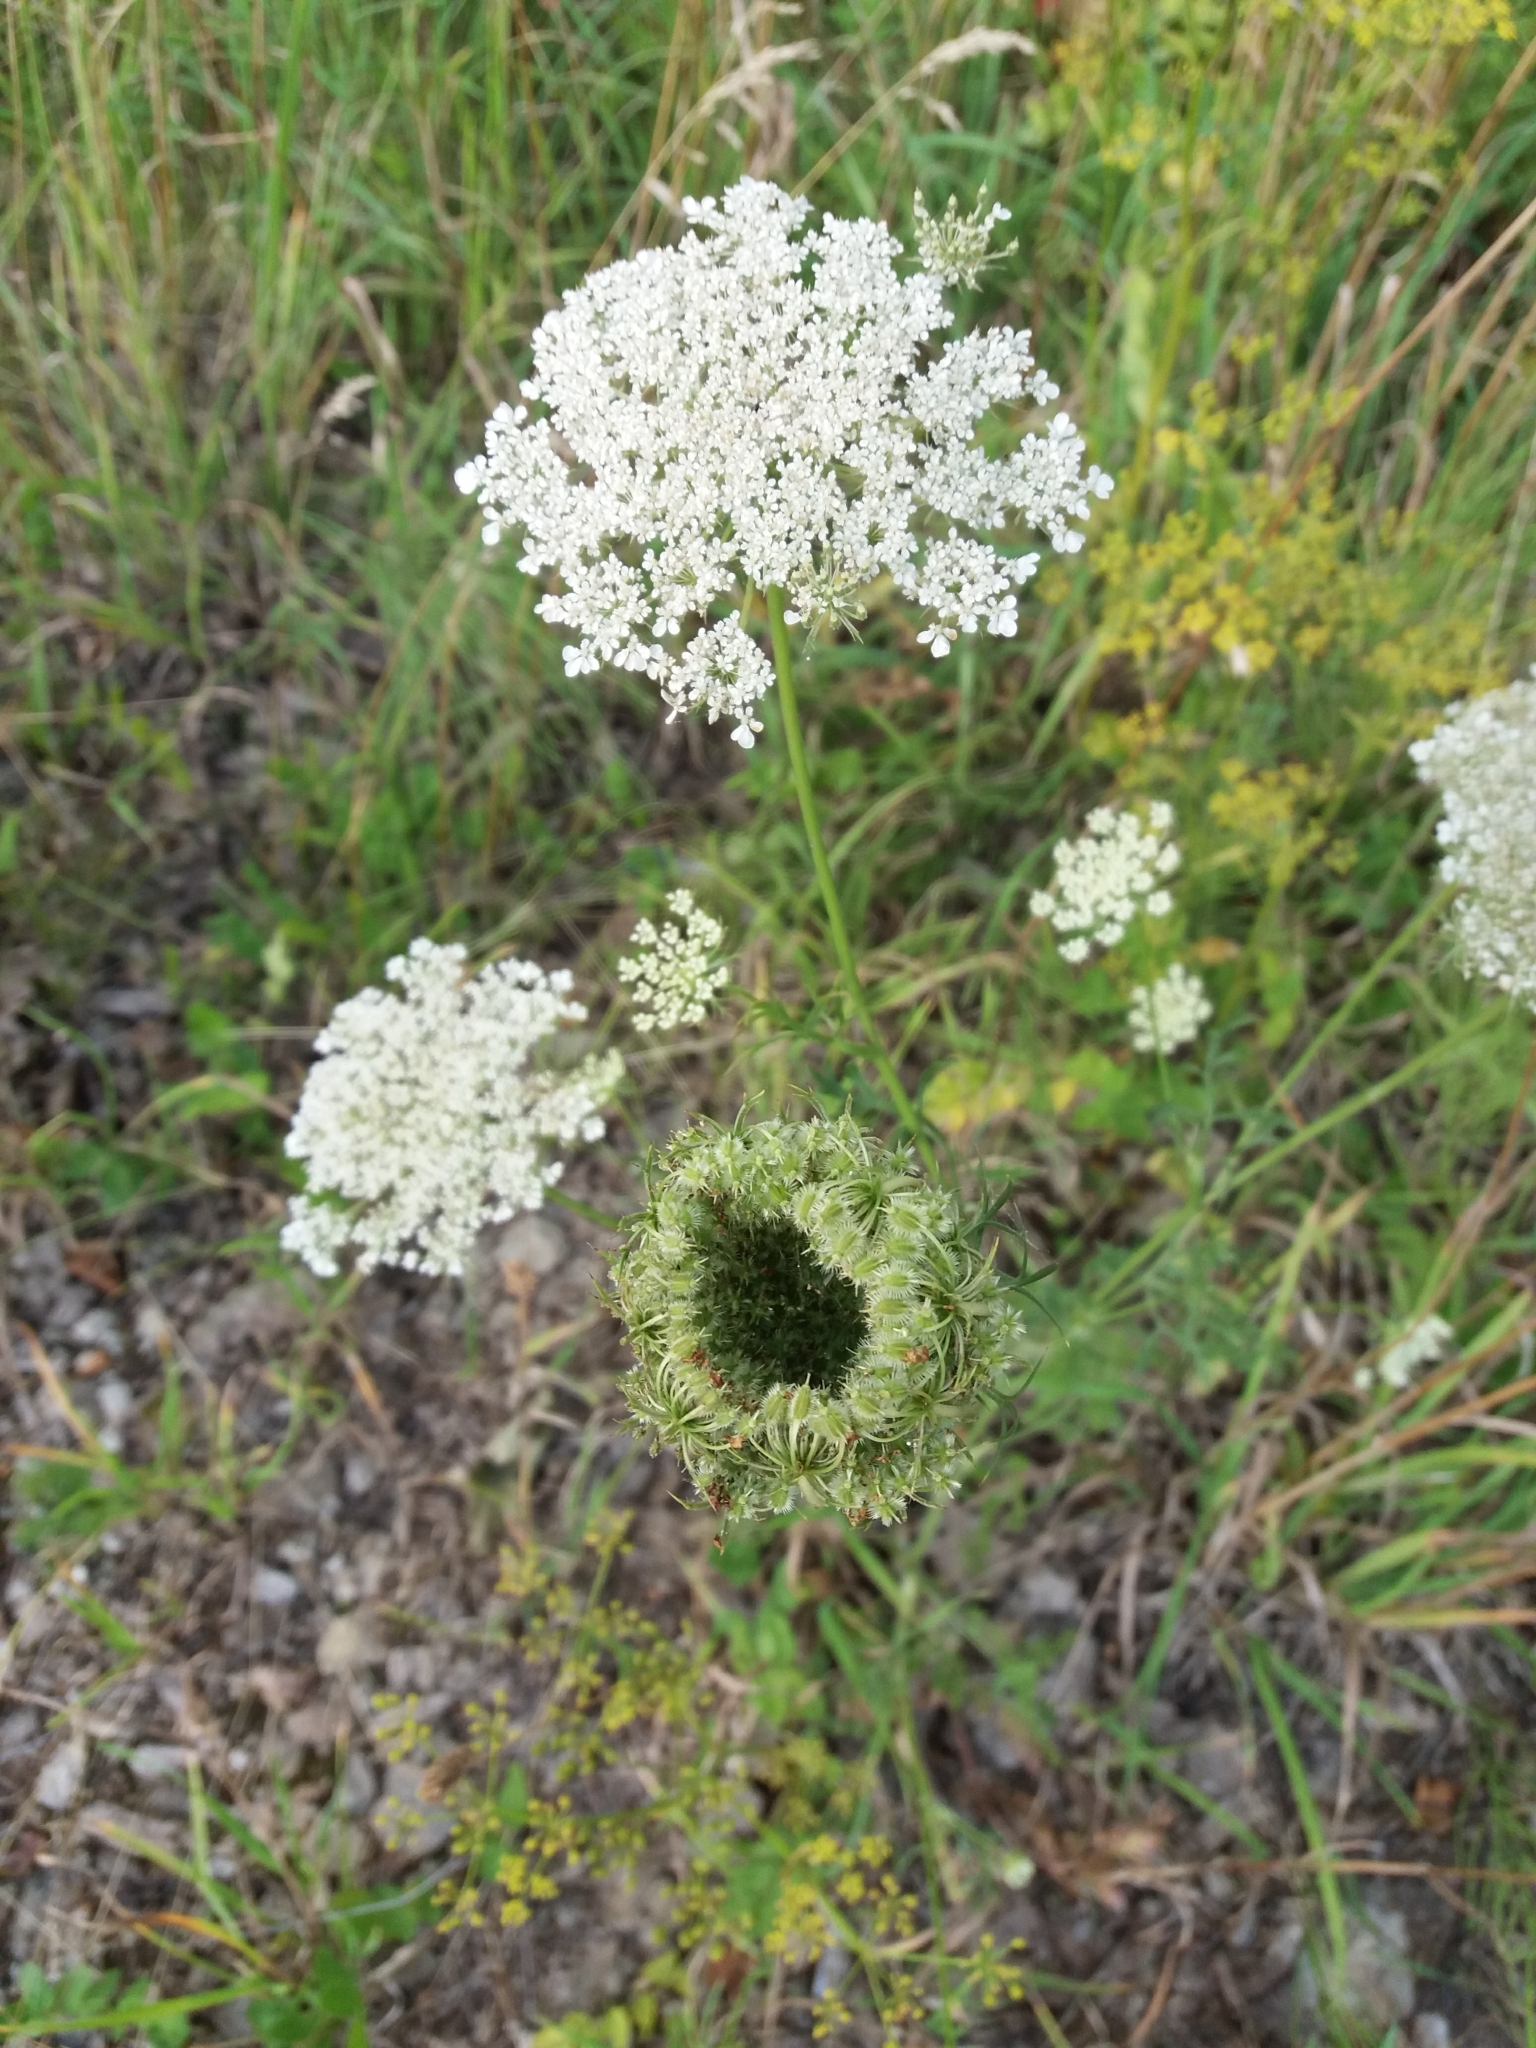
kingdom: Plantae
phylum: Tracheophyta
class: Magnoliopsida
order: Apiales
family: Apiaceae
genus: Daucus
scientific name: Daucus carota
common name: Wild carrot
